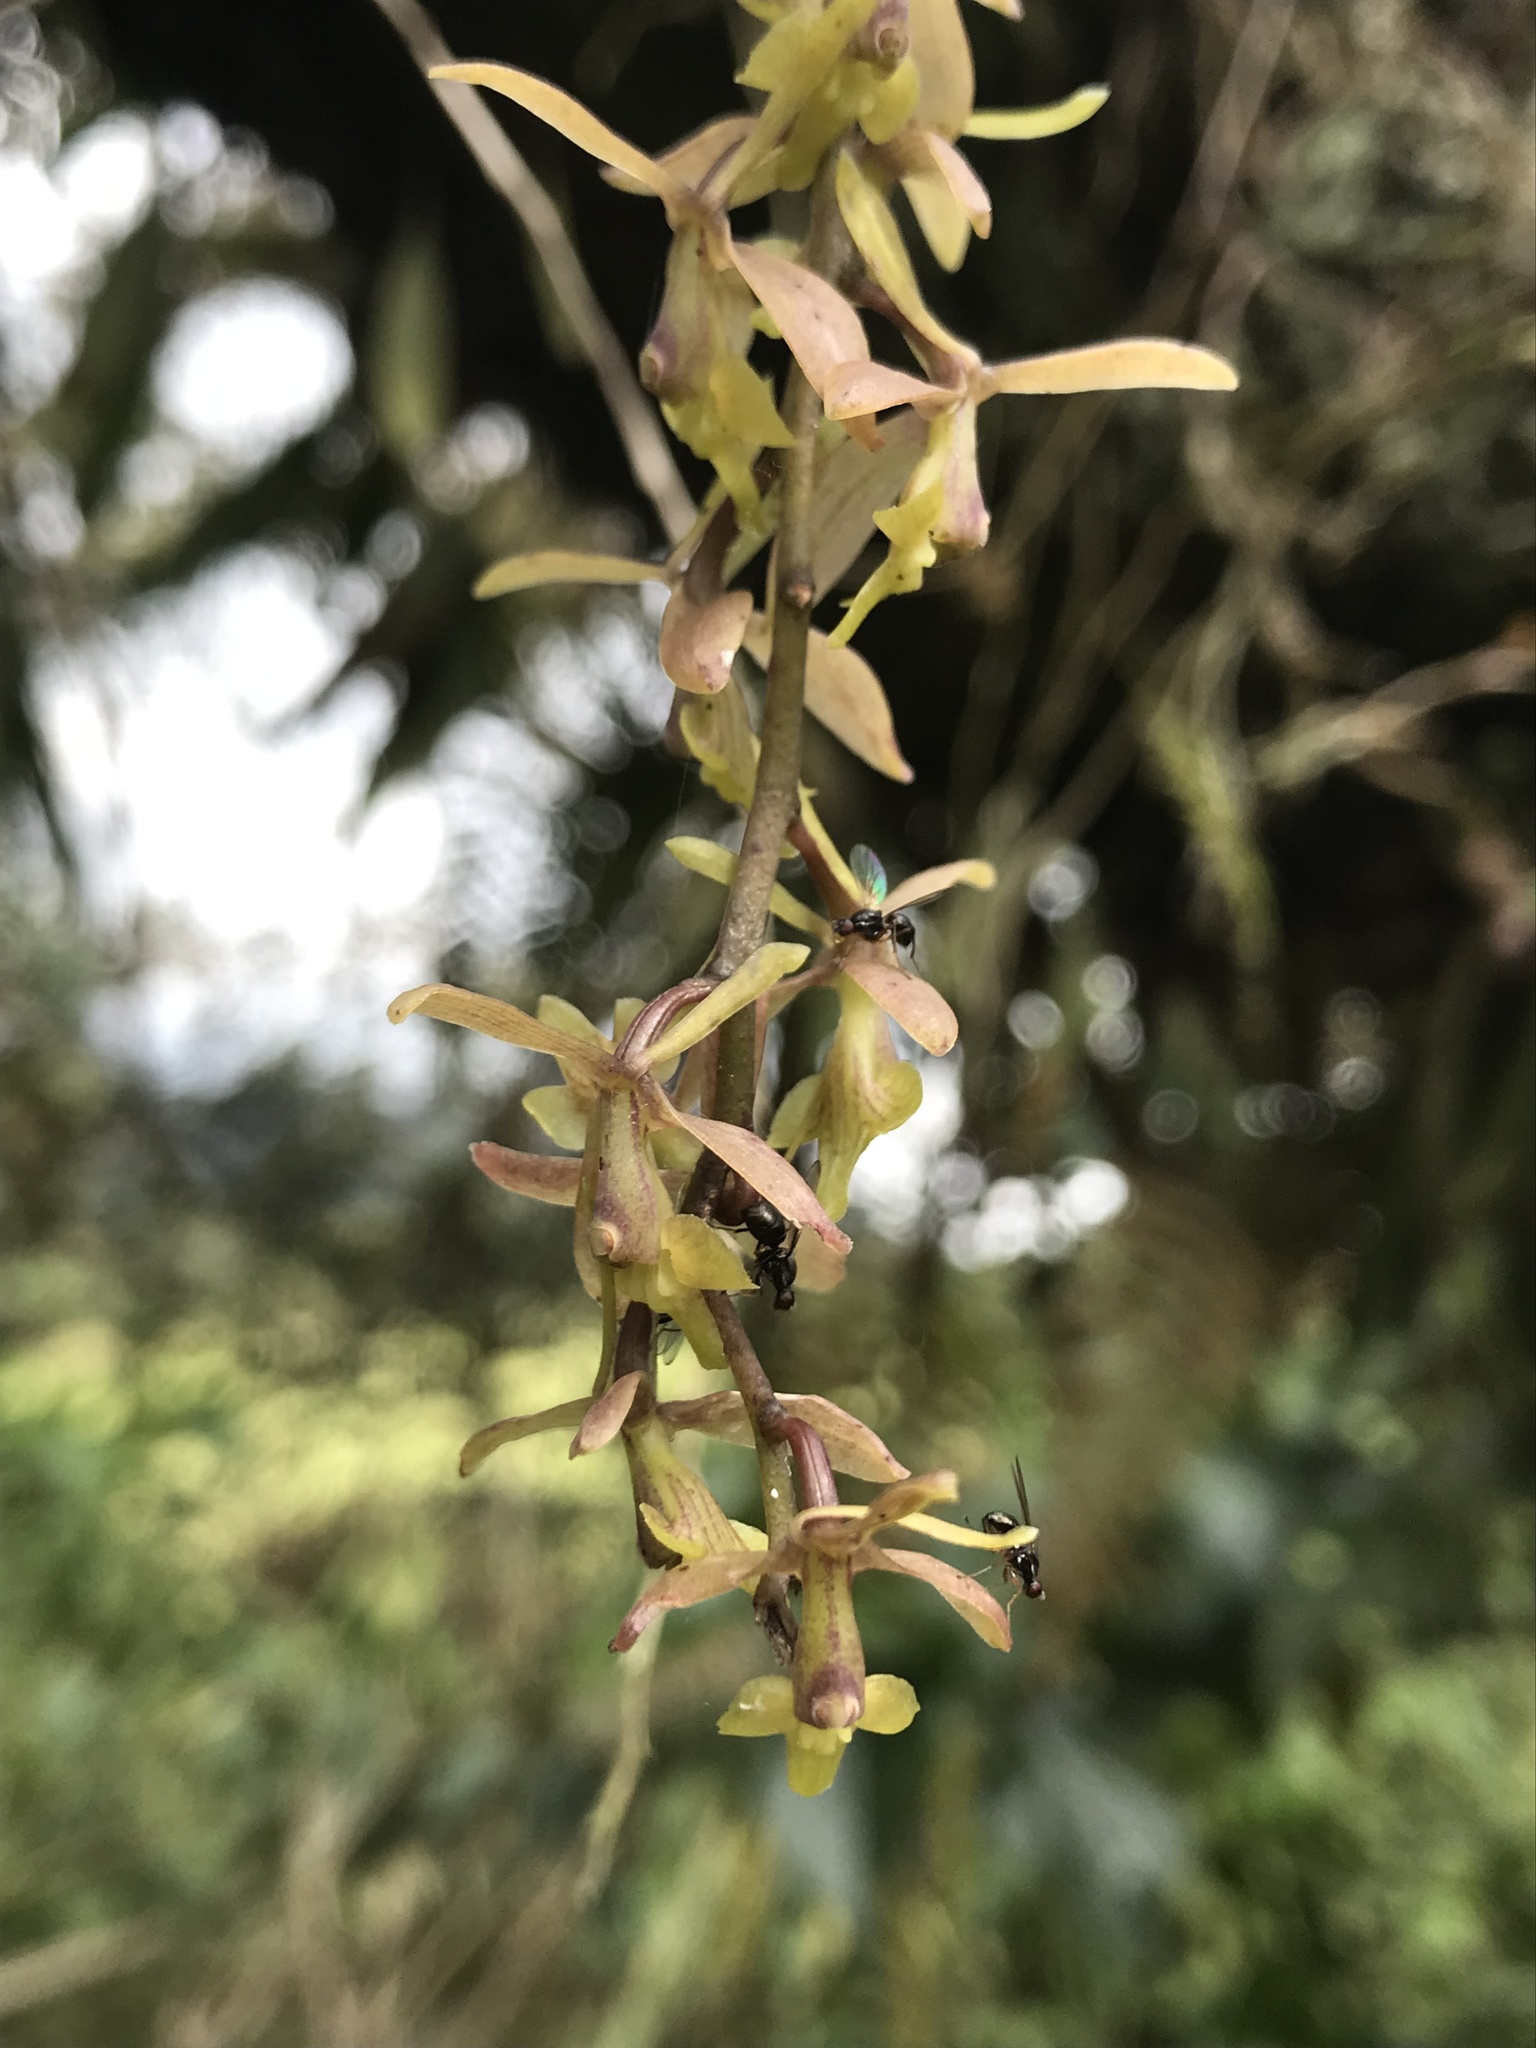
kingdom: Plantae
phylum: Tracheophyta
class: Liliopsida
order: Asparagales
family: Orchidaceae
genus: Epidendrum
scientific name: Epidendrum moritzii
